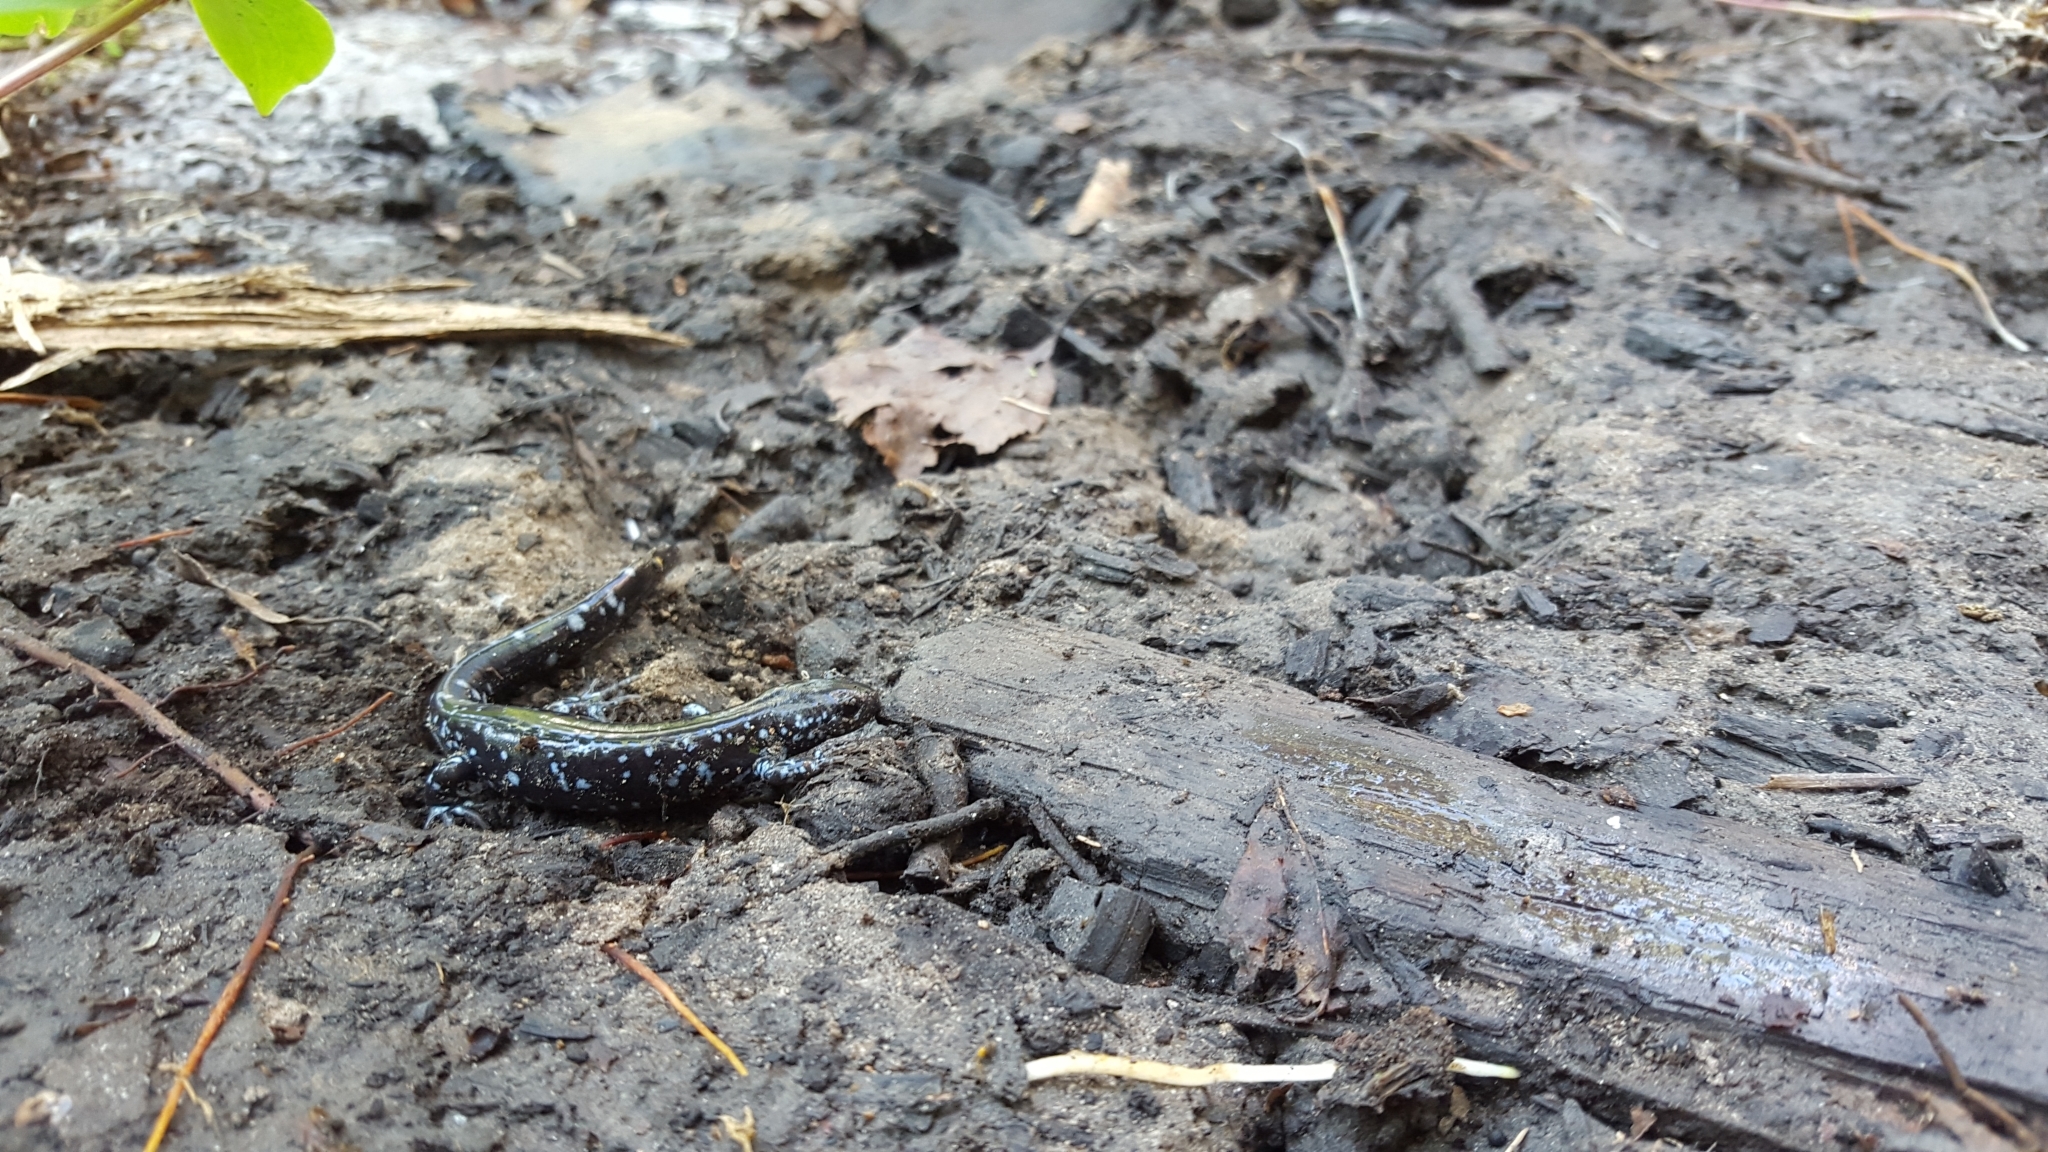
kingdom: Animalia
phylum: Chordata
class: Amphibia
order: Caudata
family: Ambystomatidae
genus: Ambystoma
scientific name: Ambystoma laterale
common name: Blue-spotted salamander
